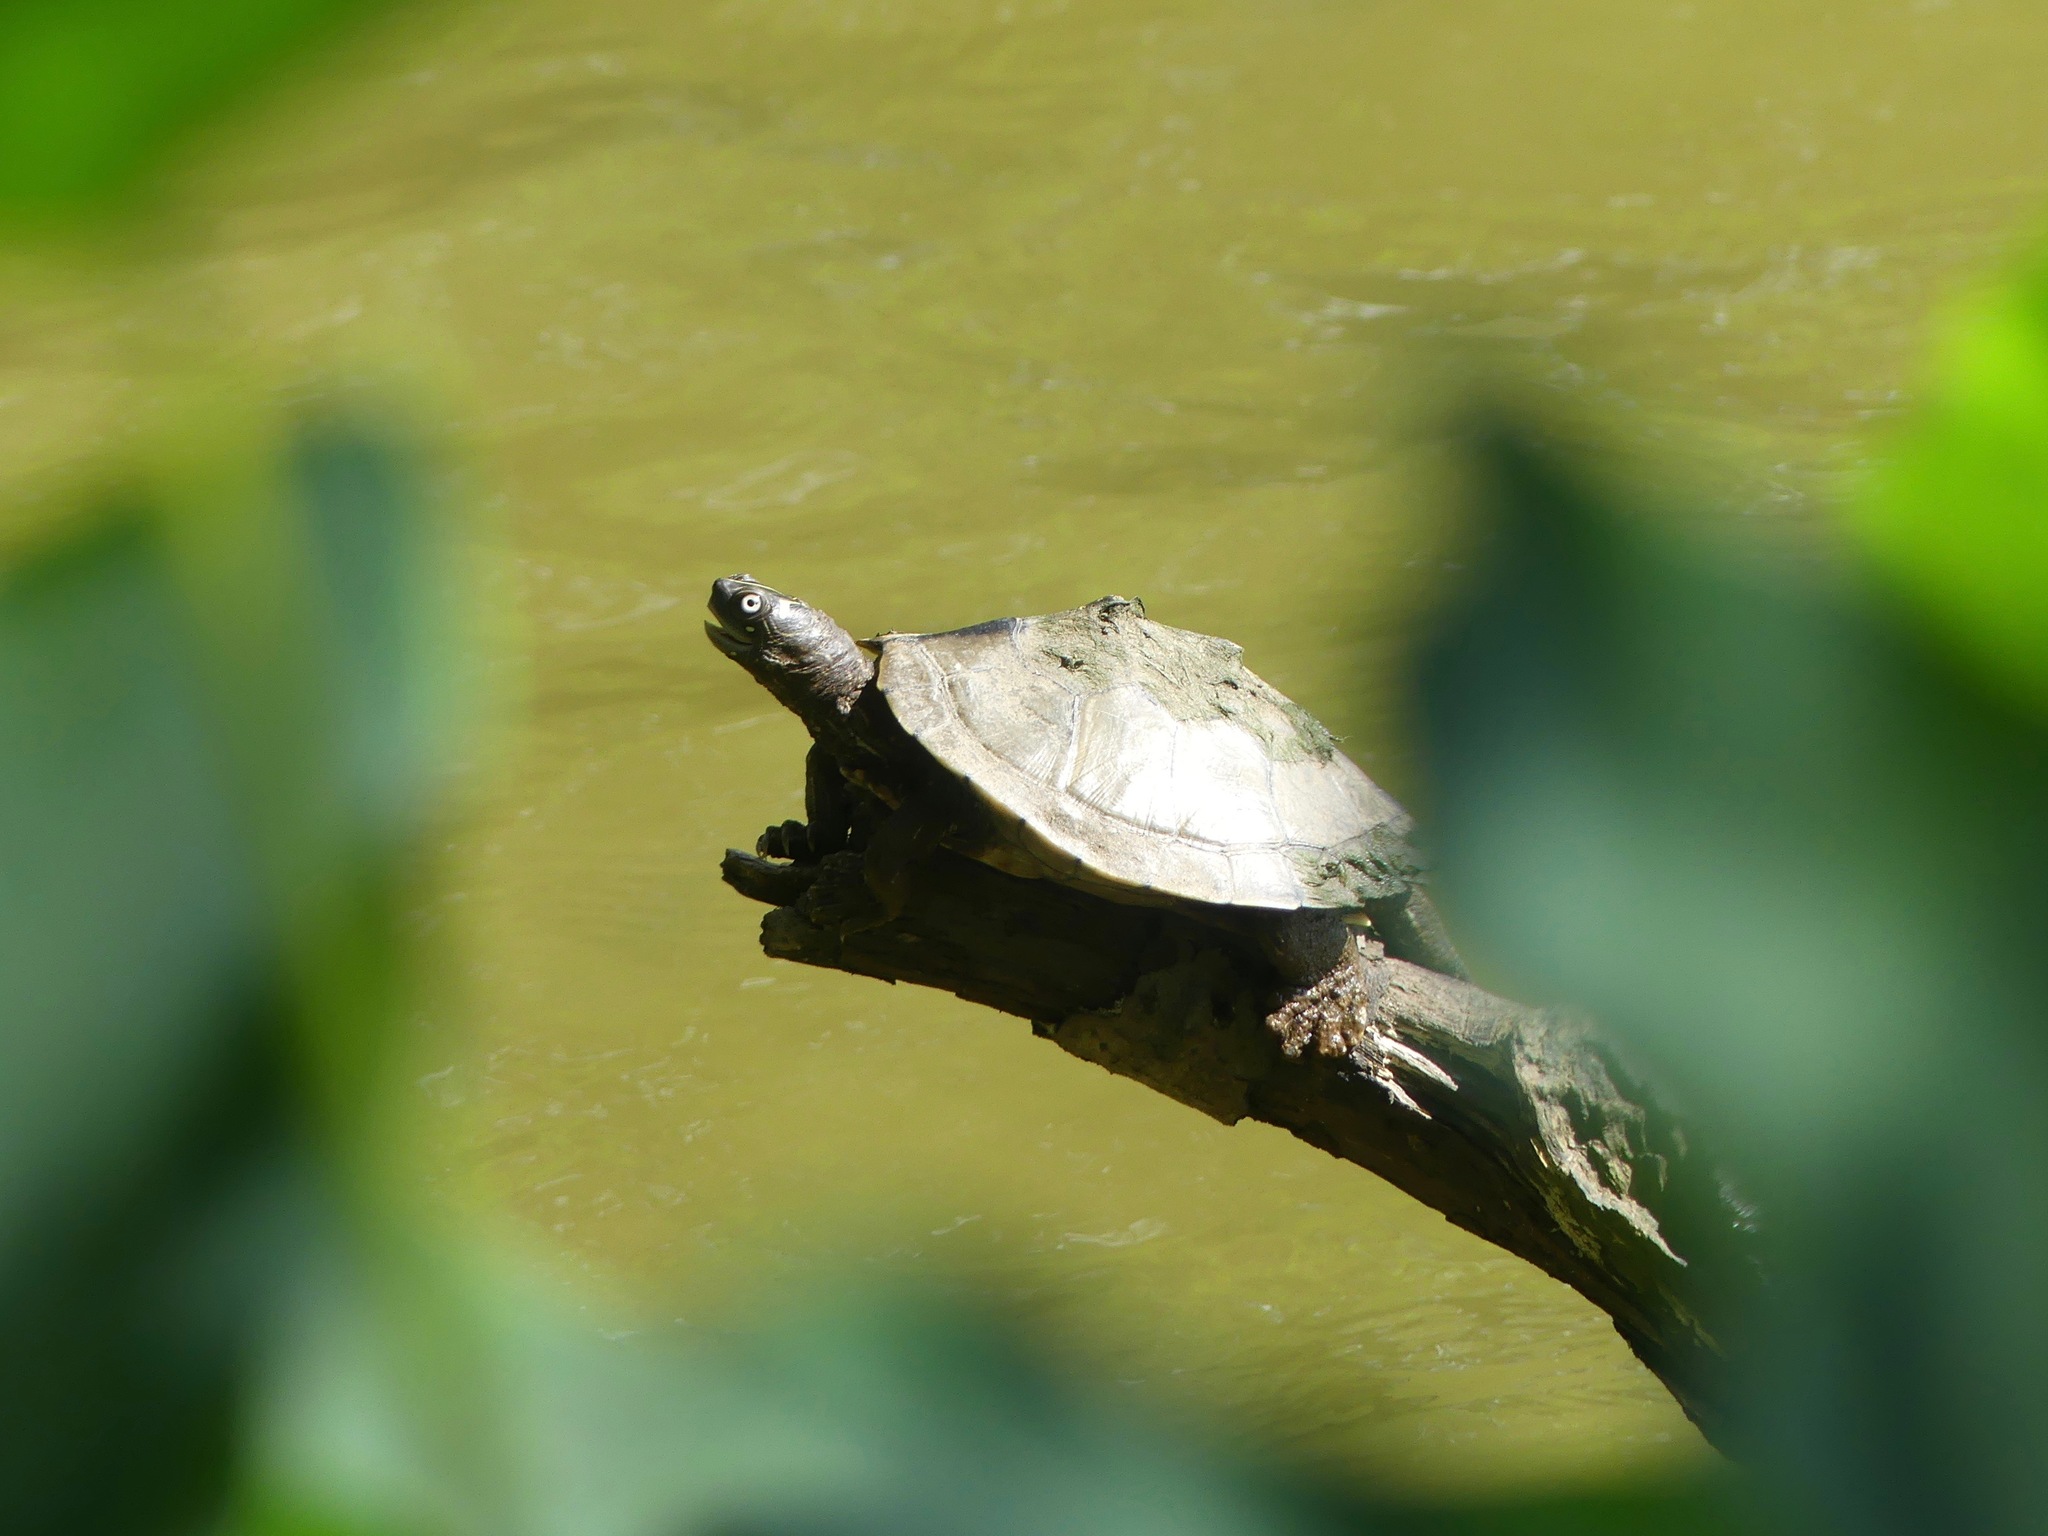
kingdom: Animalia
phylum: Chordata
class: Testudines
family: Emydidae
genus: Graptemys
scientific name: Graptemys ouachitensis
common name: Ouachita map turtle
